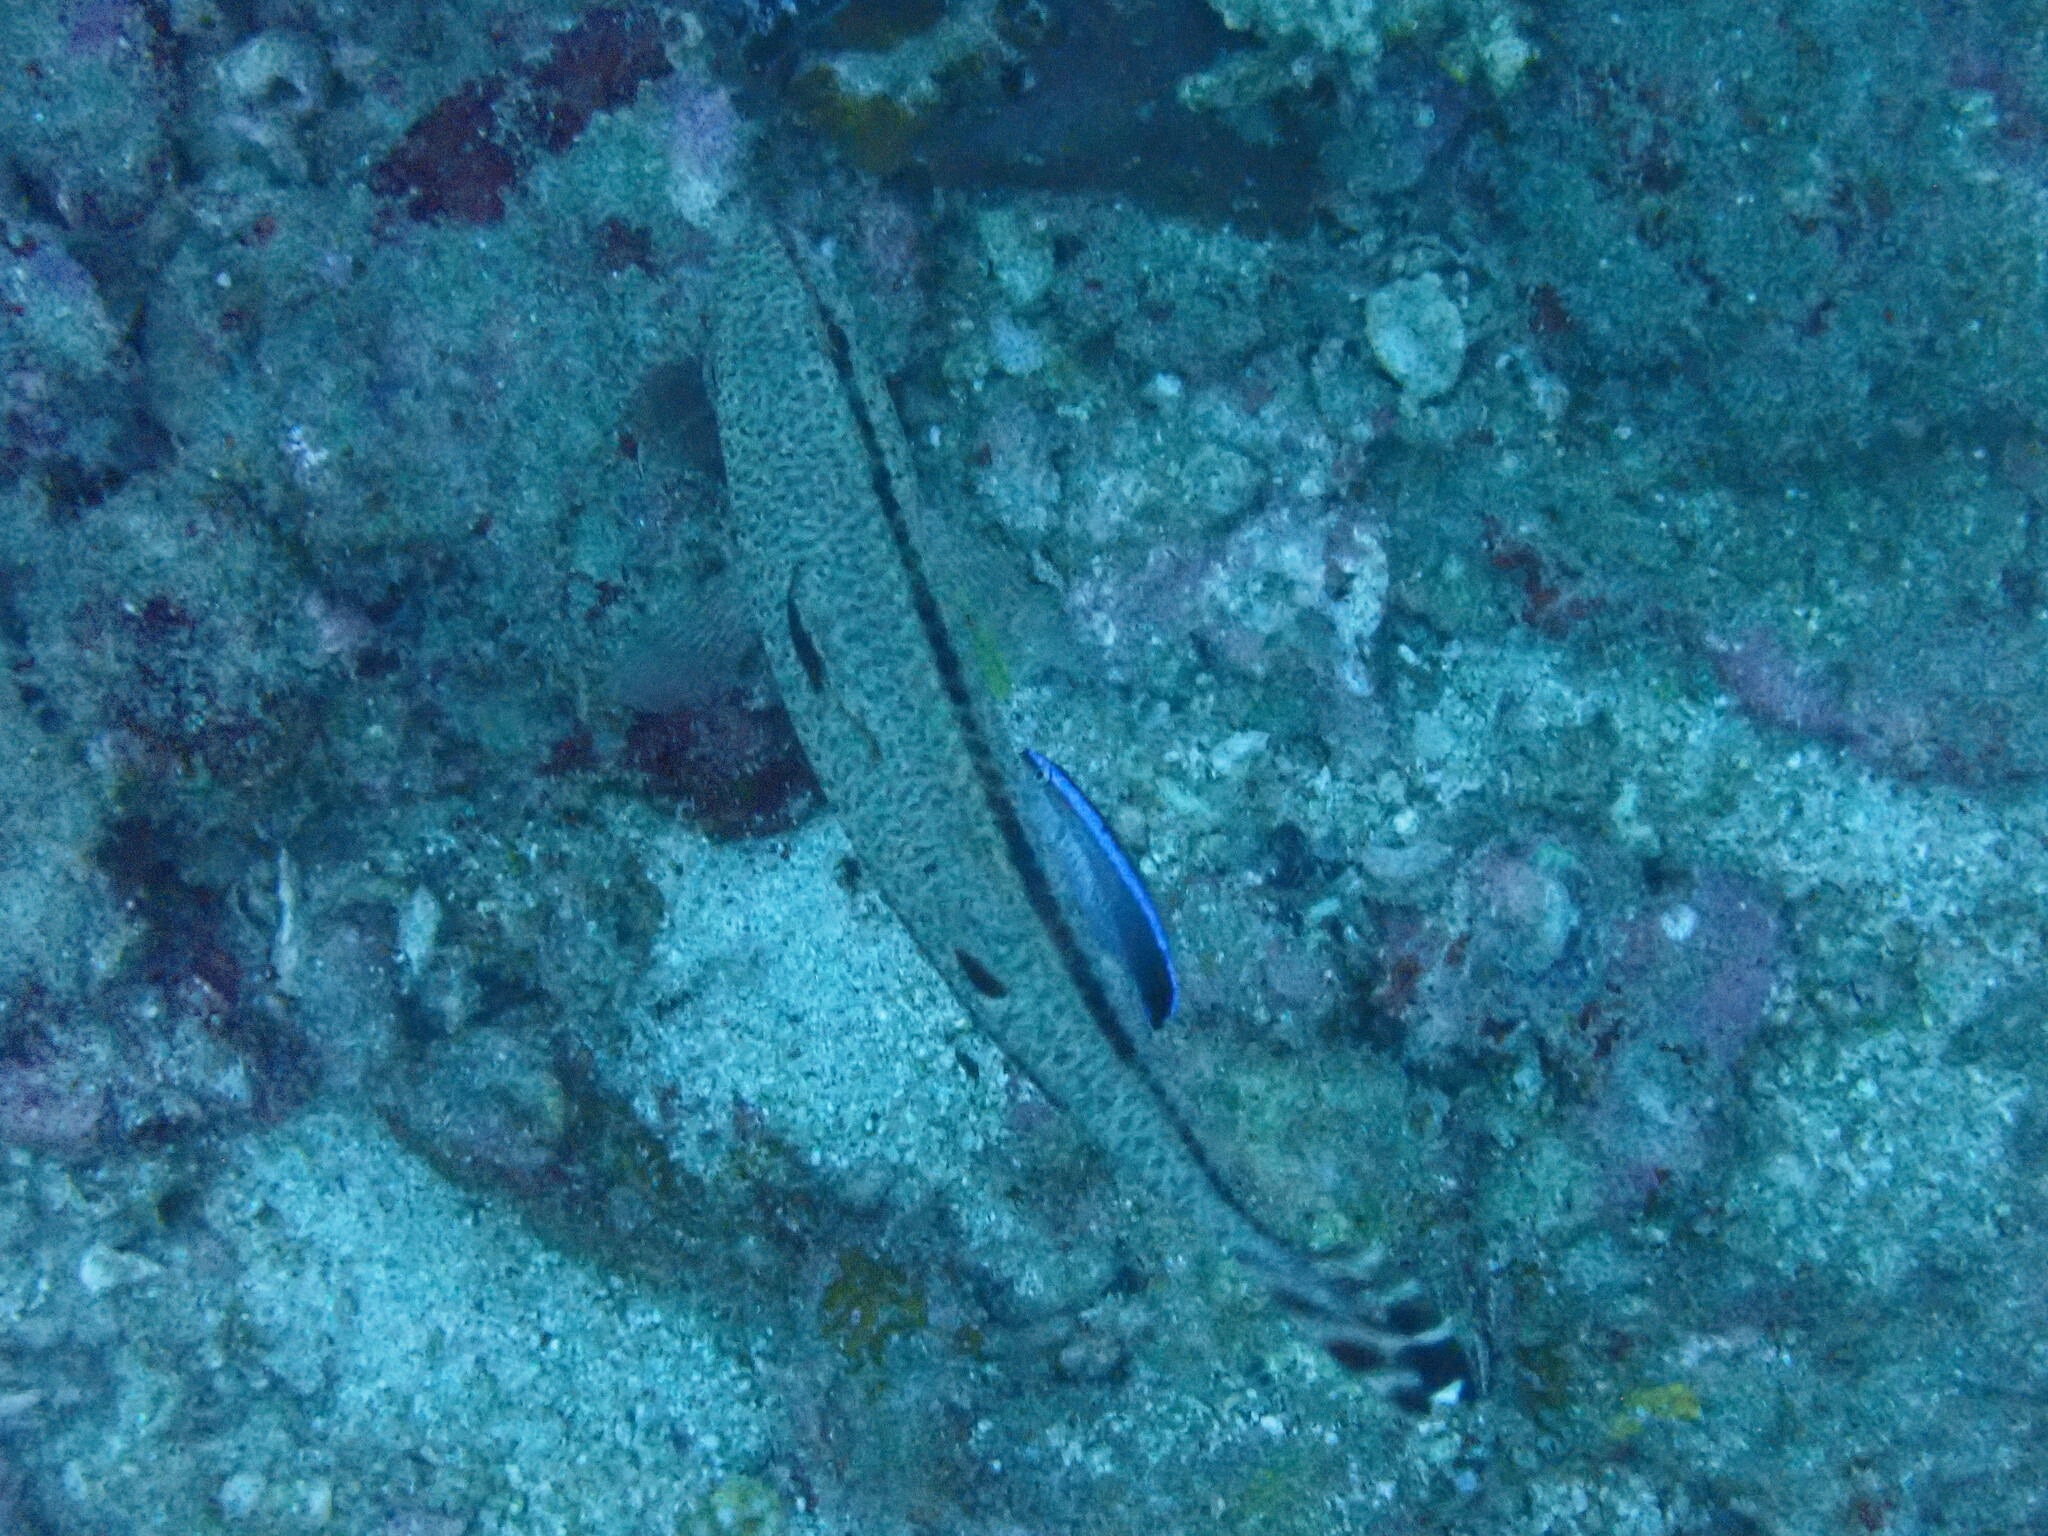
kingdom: Animalia
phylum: Chordata
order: Perciformes
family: Mullidae
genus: Upeneus
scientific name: Upeneus tragula
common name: Freckled goatfish
